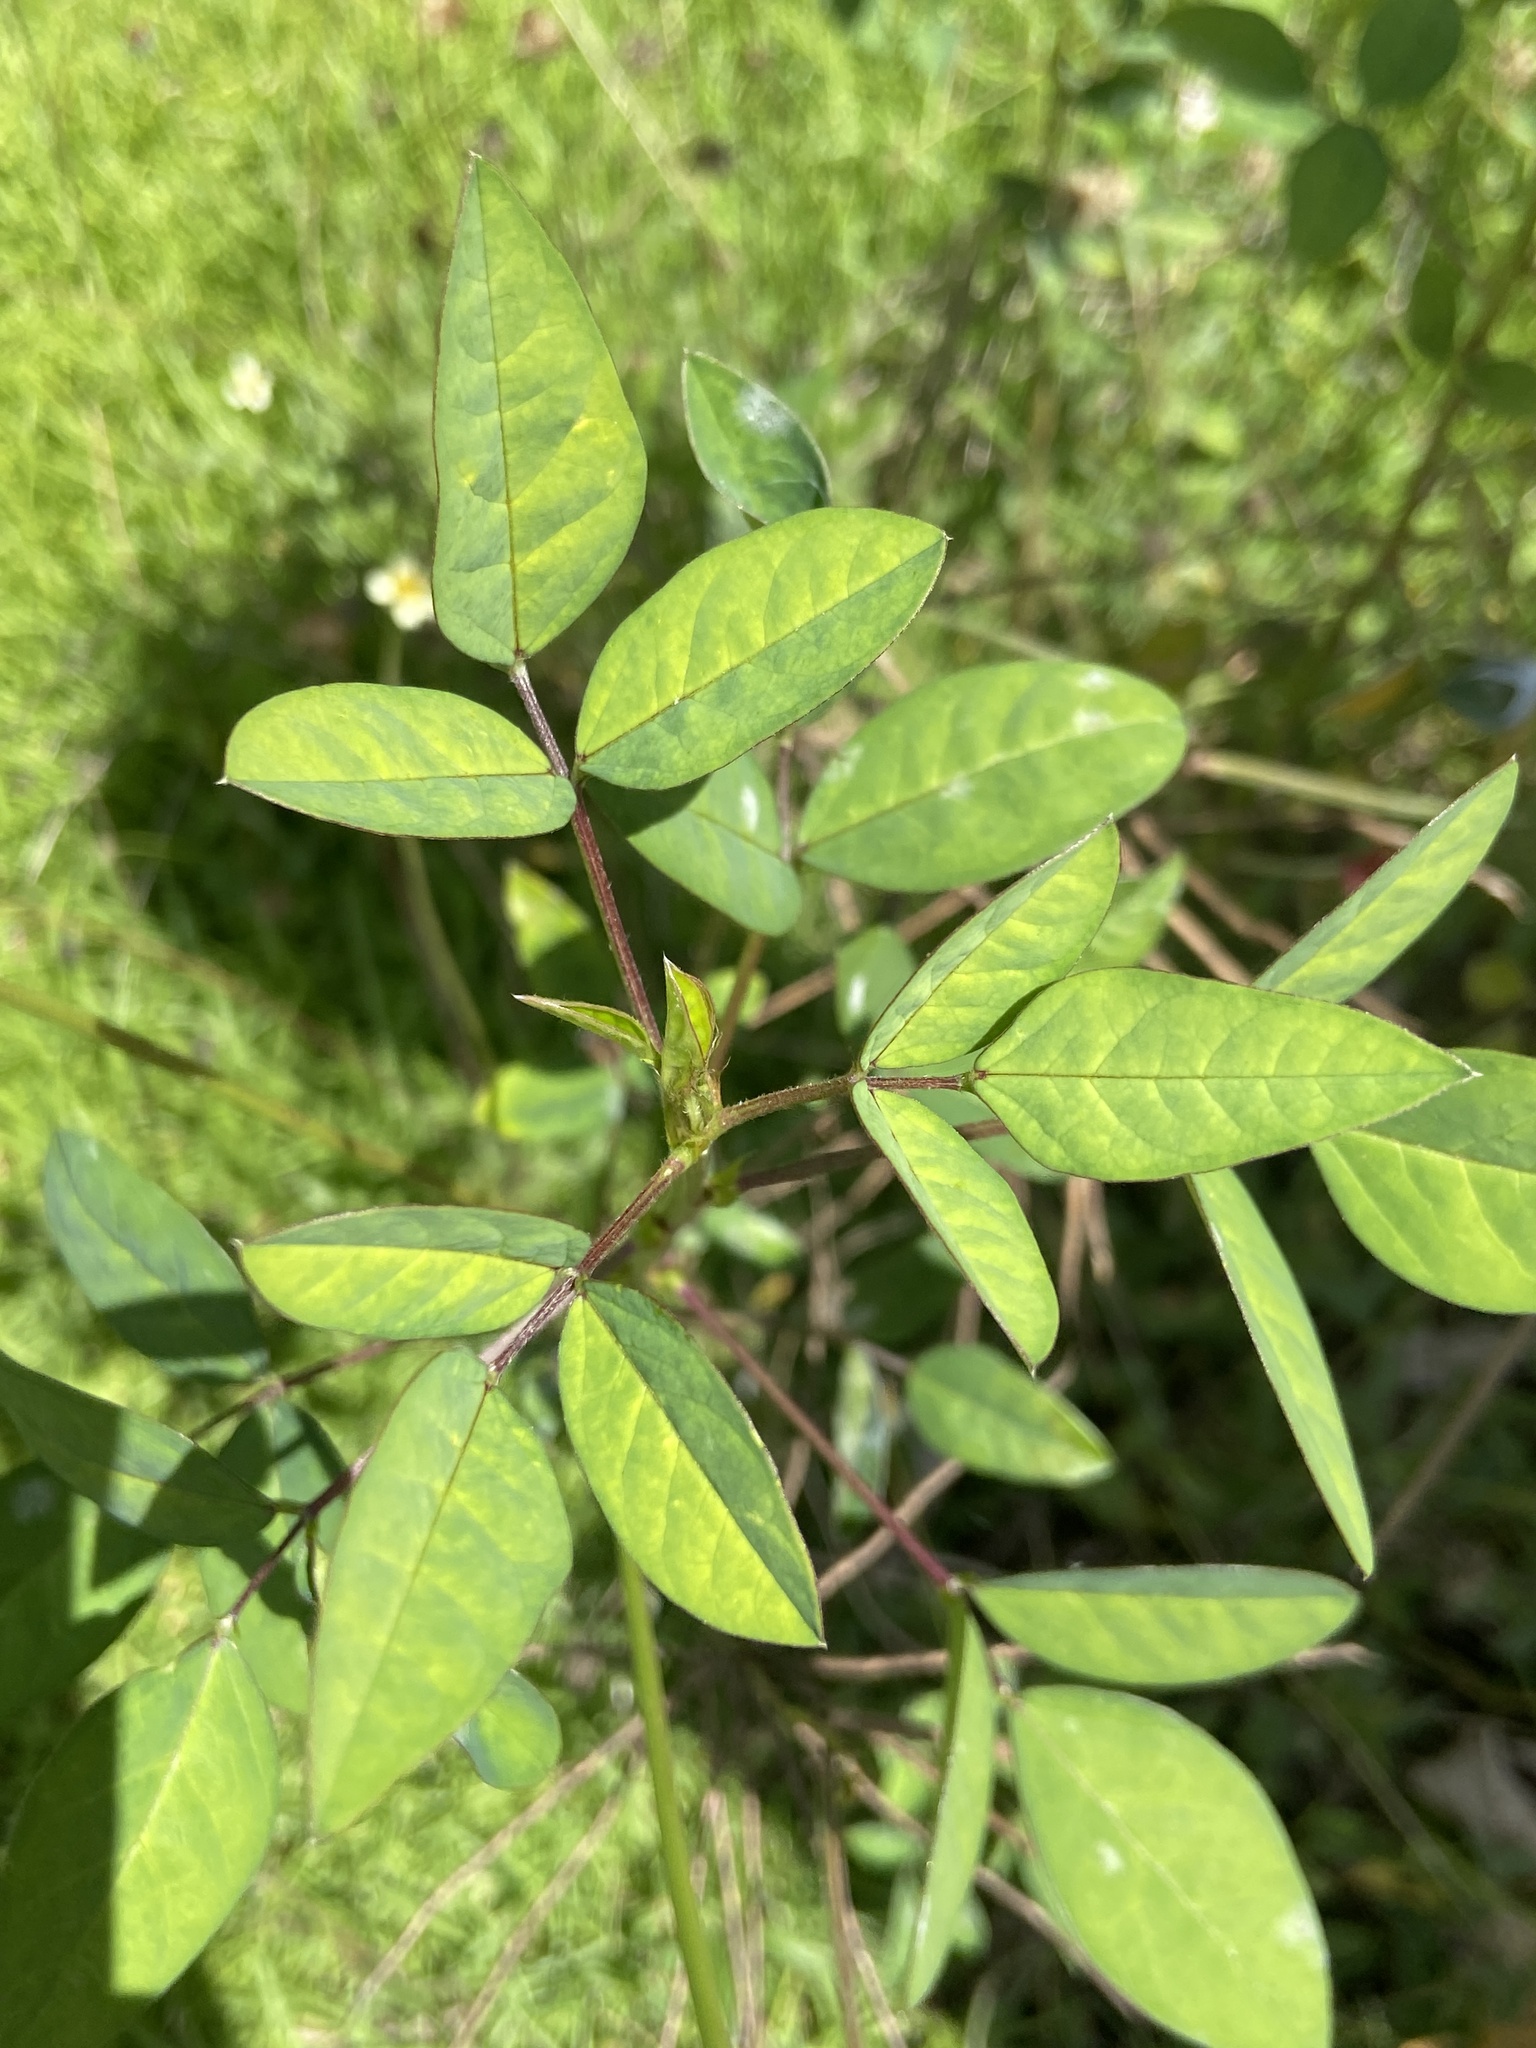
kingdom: Plantae
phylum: Tracheophyta
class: Magnoliopsida
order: Fabales
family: Fabaceae
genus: Macroptilium
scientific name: Macroptilium lathyroides
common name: Wild bushbean
